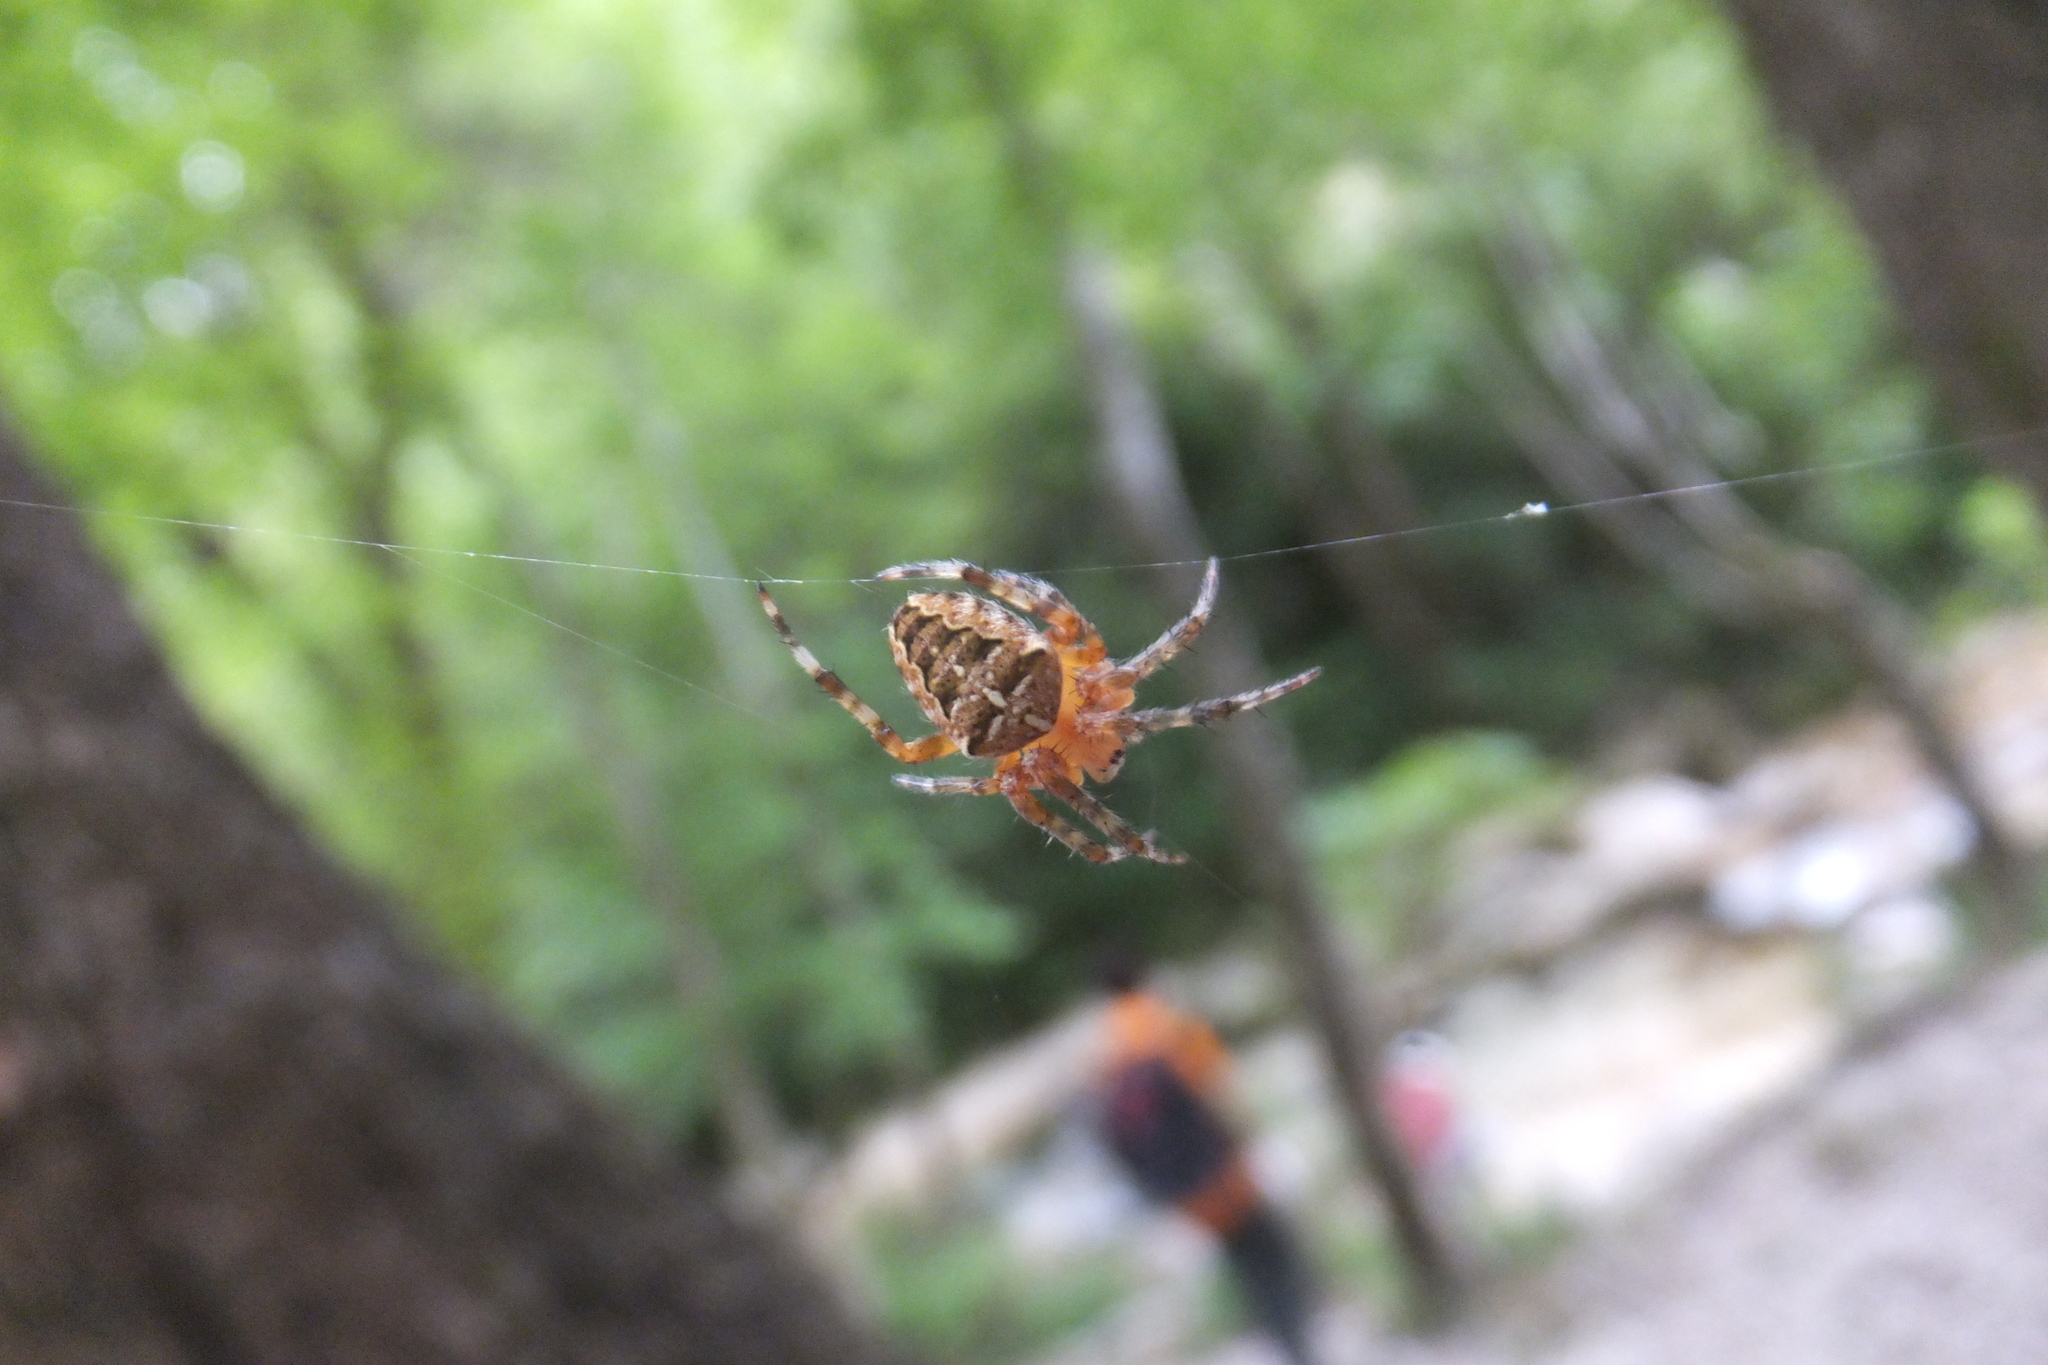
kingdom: Animalia
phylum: Arthropoda
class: Arachnida
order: Araneae
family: Araneidae
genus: Araneus
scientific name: Araneus diadematus
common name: Cross orbweaver
